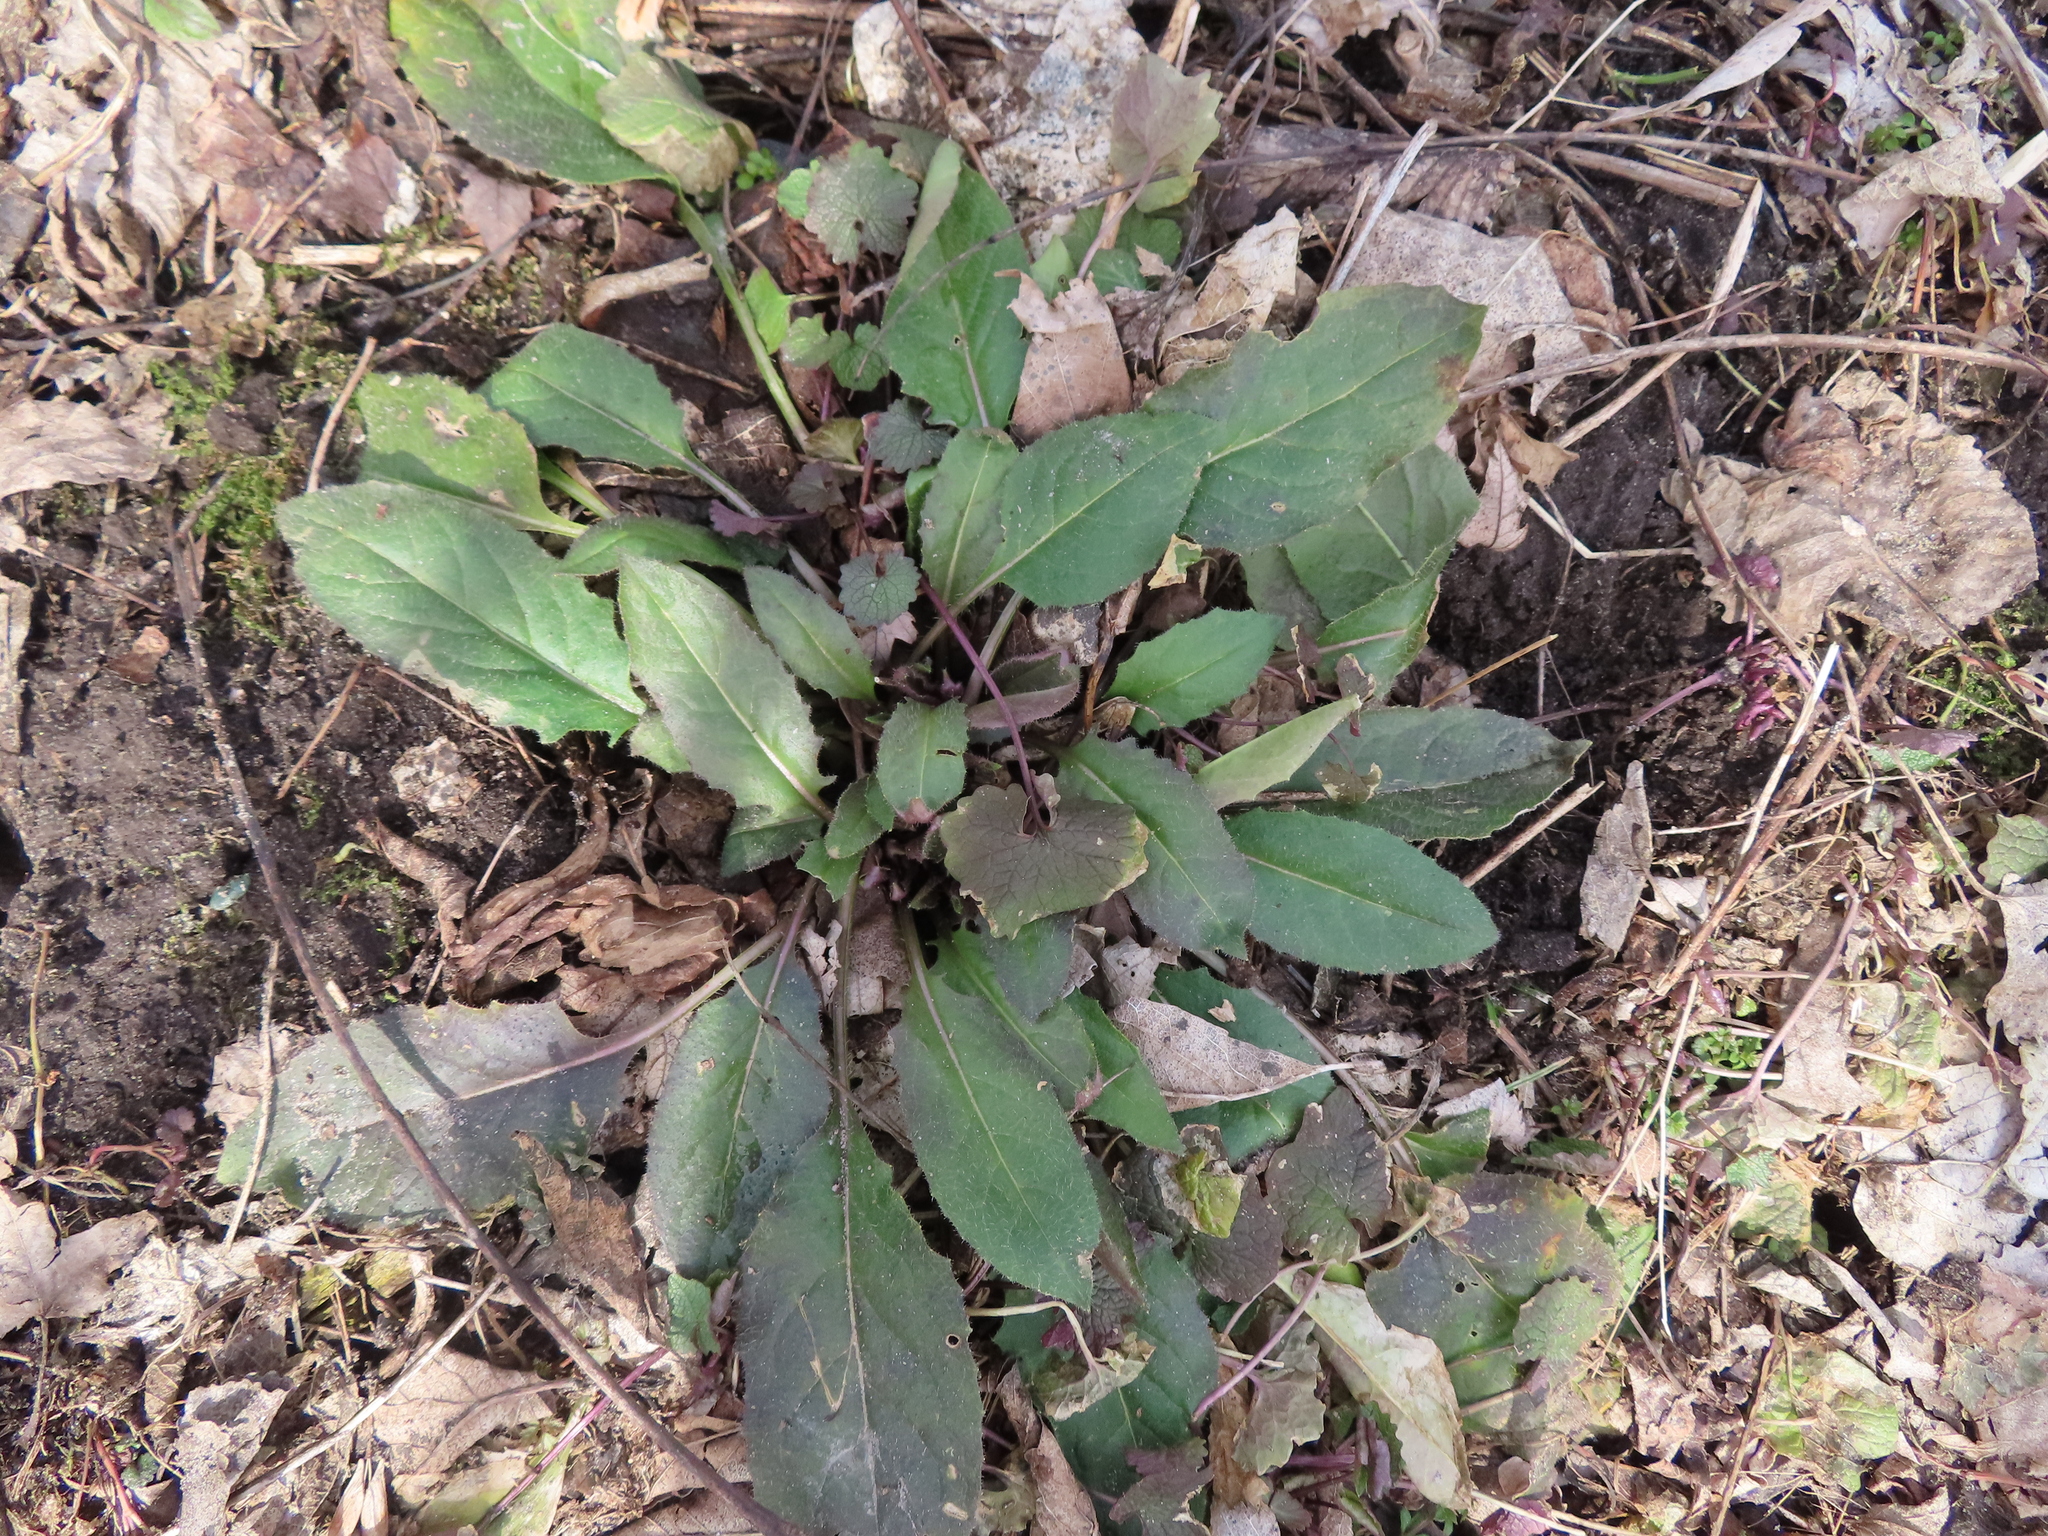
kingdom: Plantae
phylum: Tracheophyta
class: Magnoliopsida
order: Brassicales
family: Brassicaceae
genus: Hesperis
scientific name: Hesperis matronalis
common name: Dame's-violet
